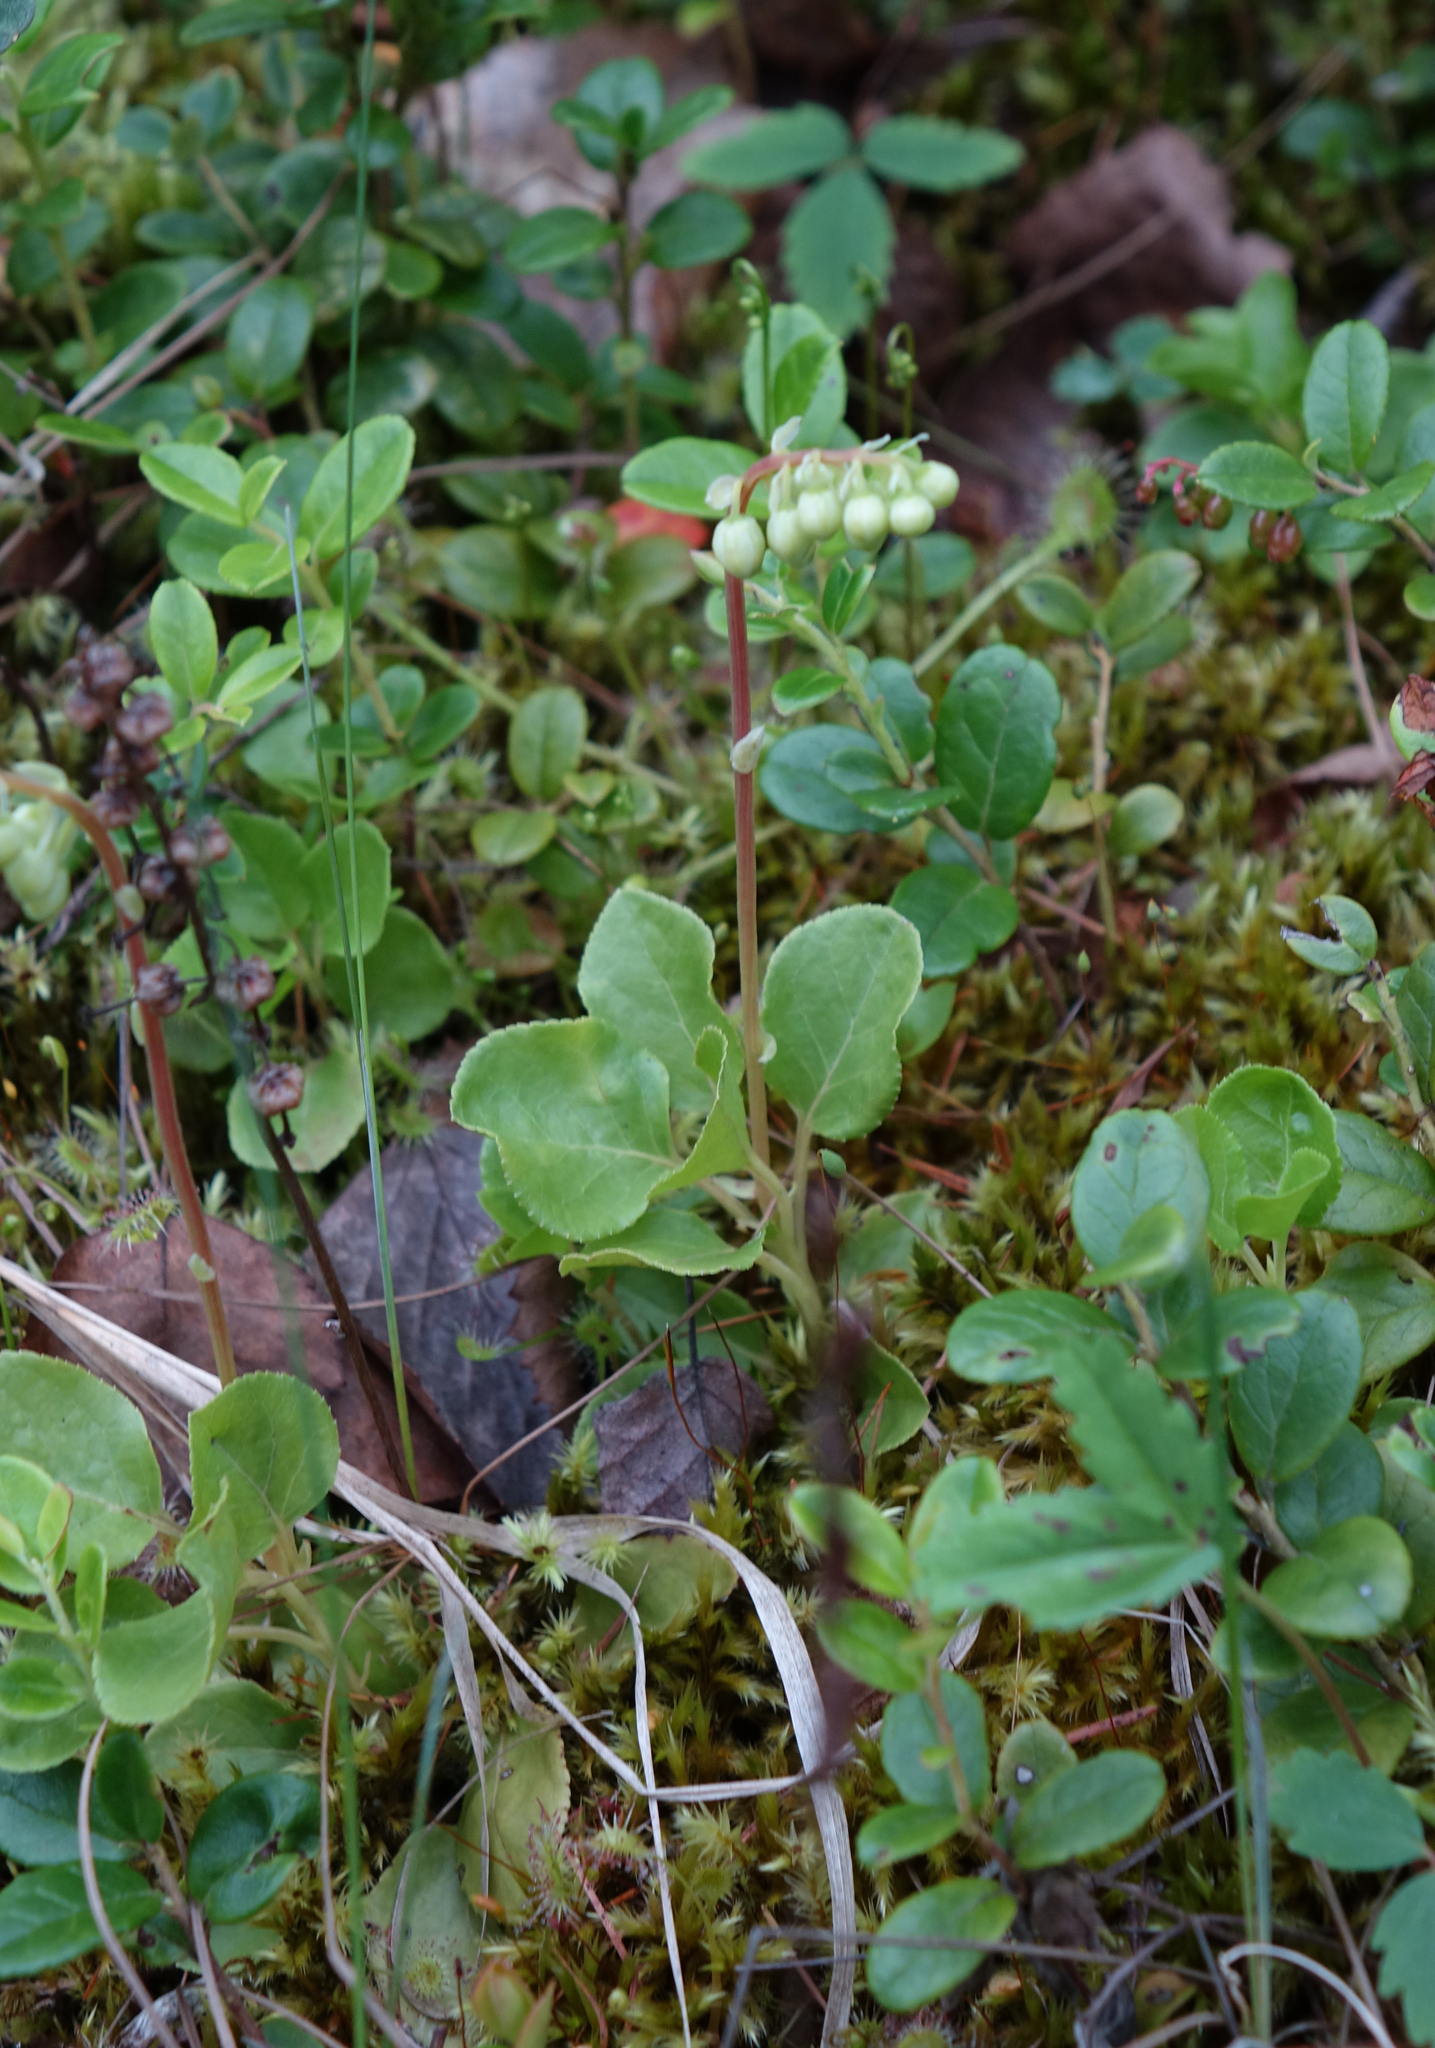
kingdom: Plantae
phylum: Tracheophyta
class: Magnoliopsida
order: Ericales
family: Ericaceae
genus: Orthilia
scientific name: Orthilia secunda
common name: One-sided orthilia
